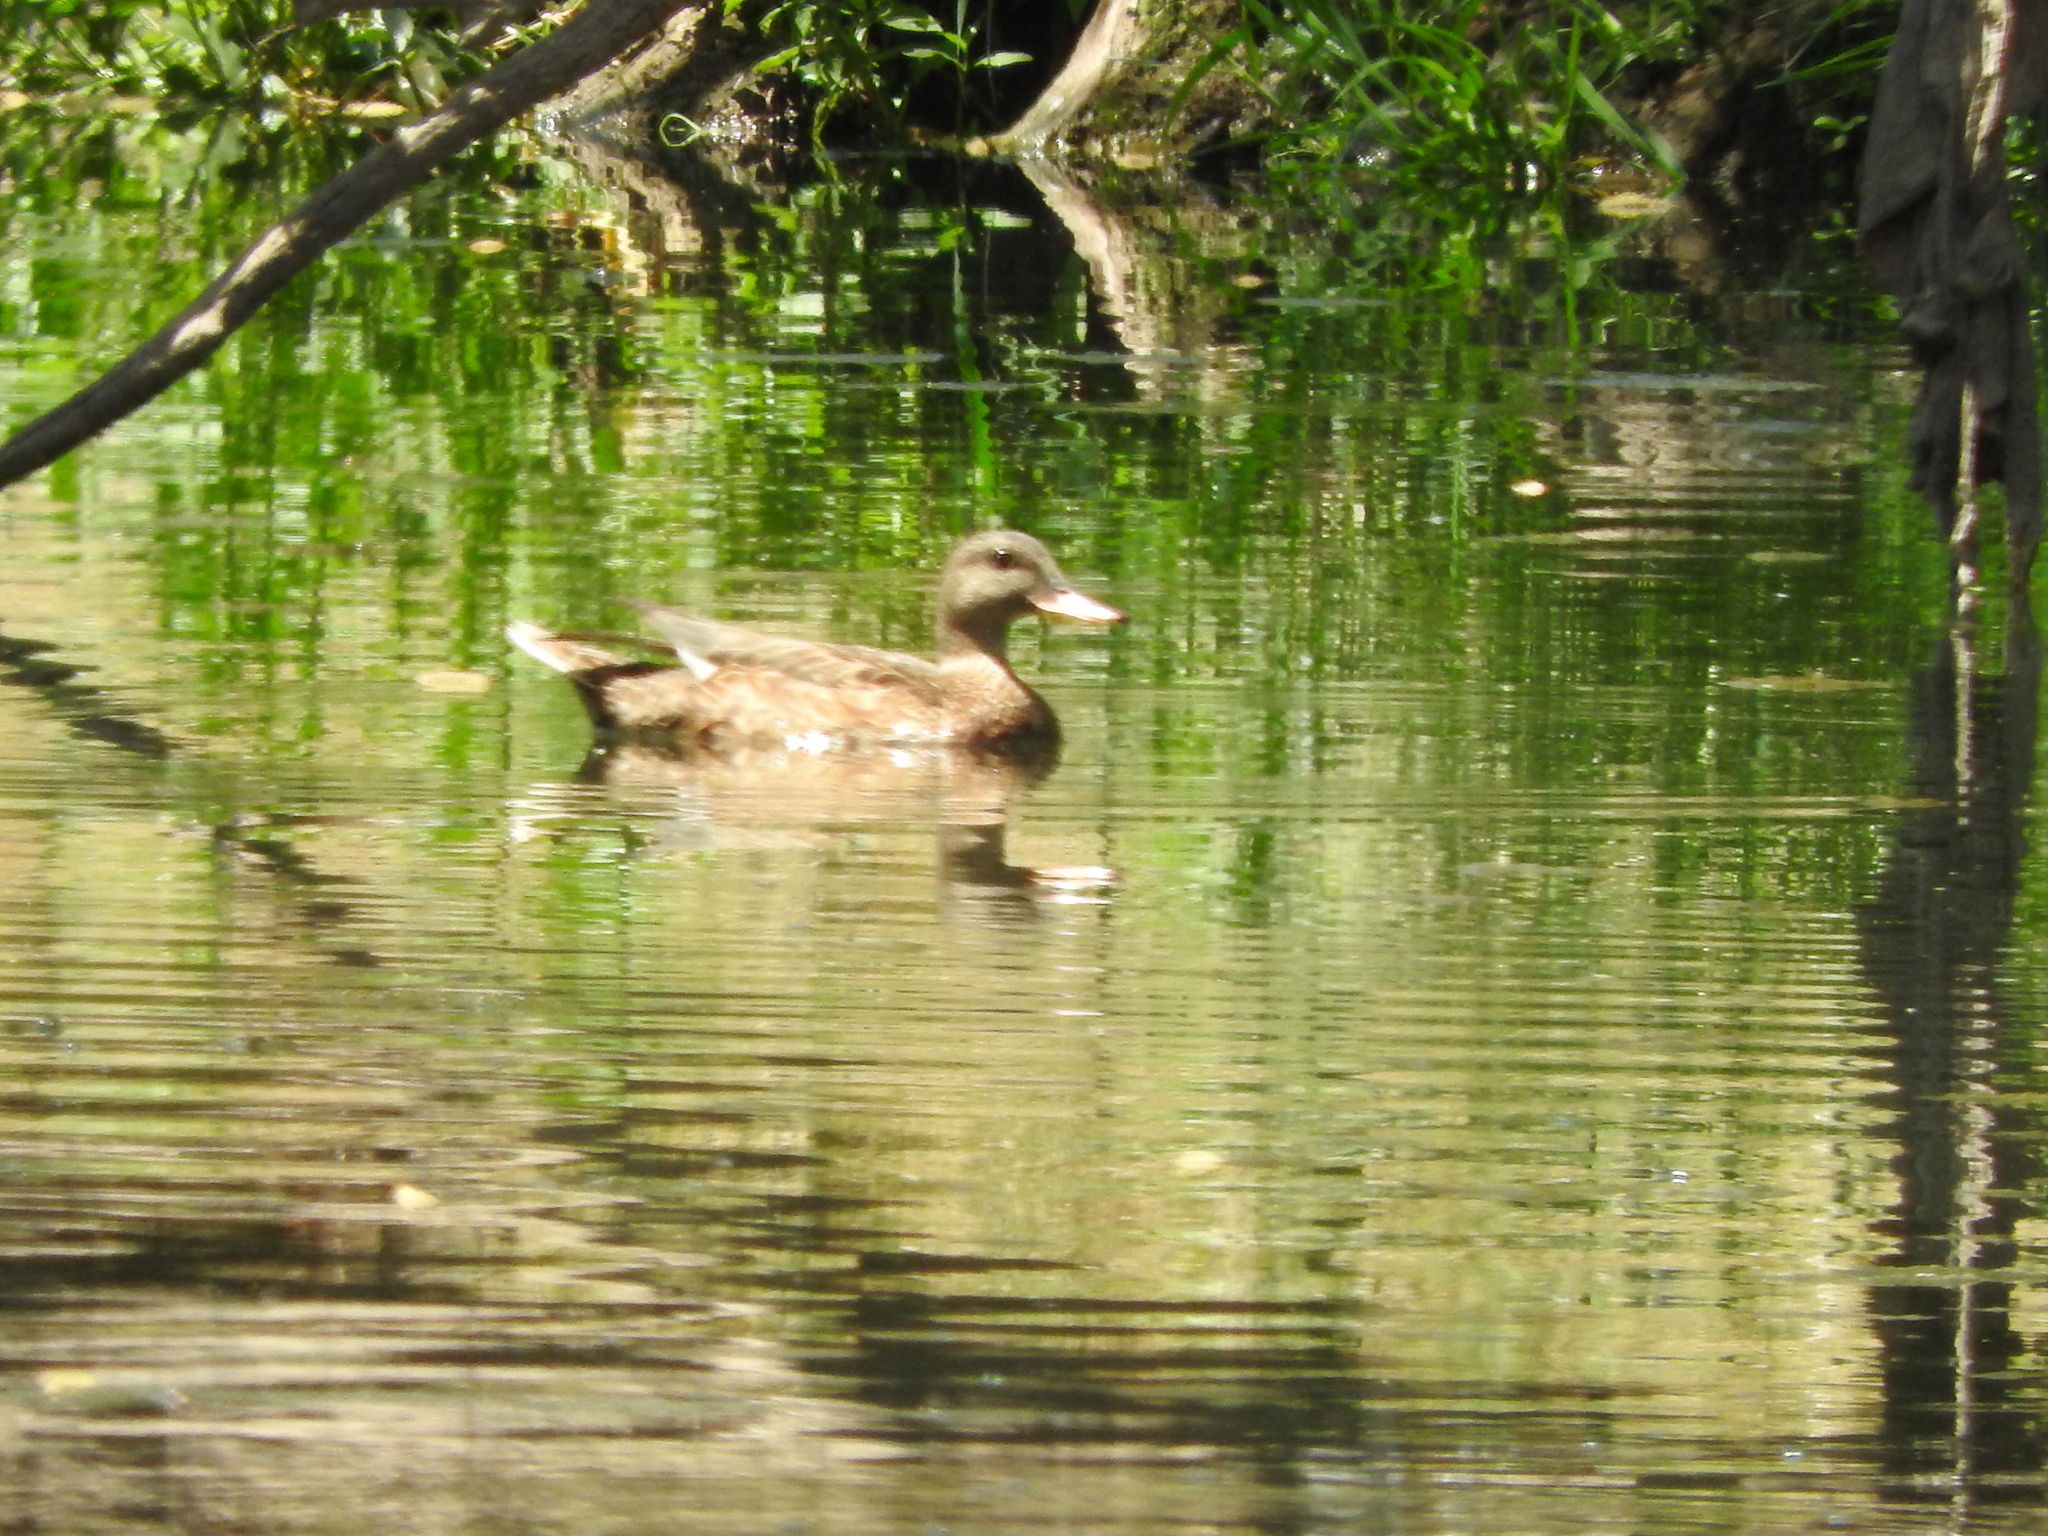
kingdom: Animalia
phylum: Chordata
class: Aves
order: Anseriformes
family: Anatidae
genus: Anas
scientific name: Anas diazi
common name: Mexican duck
